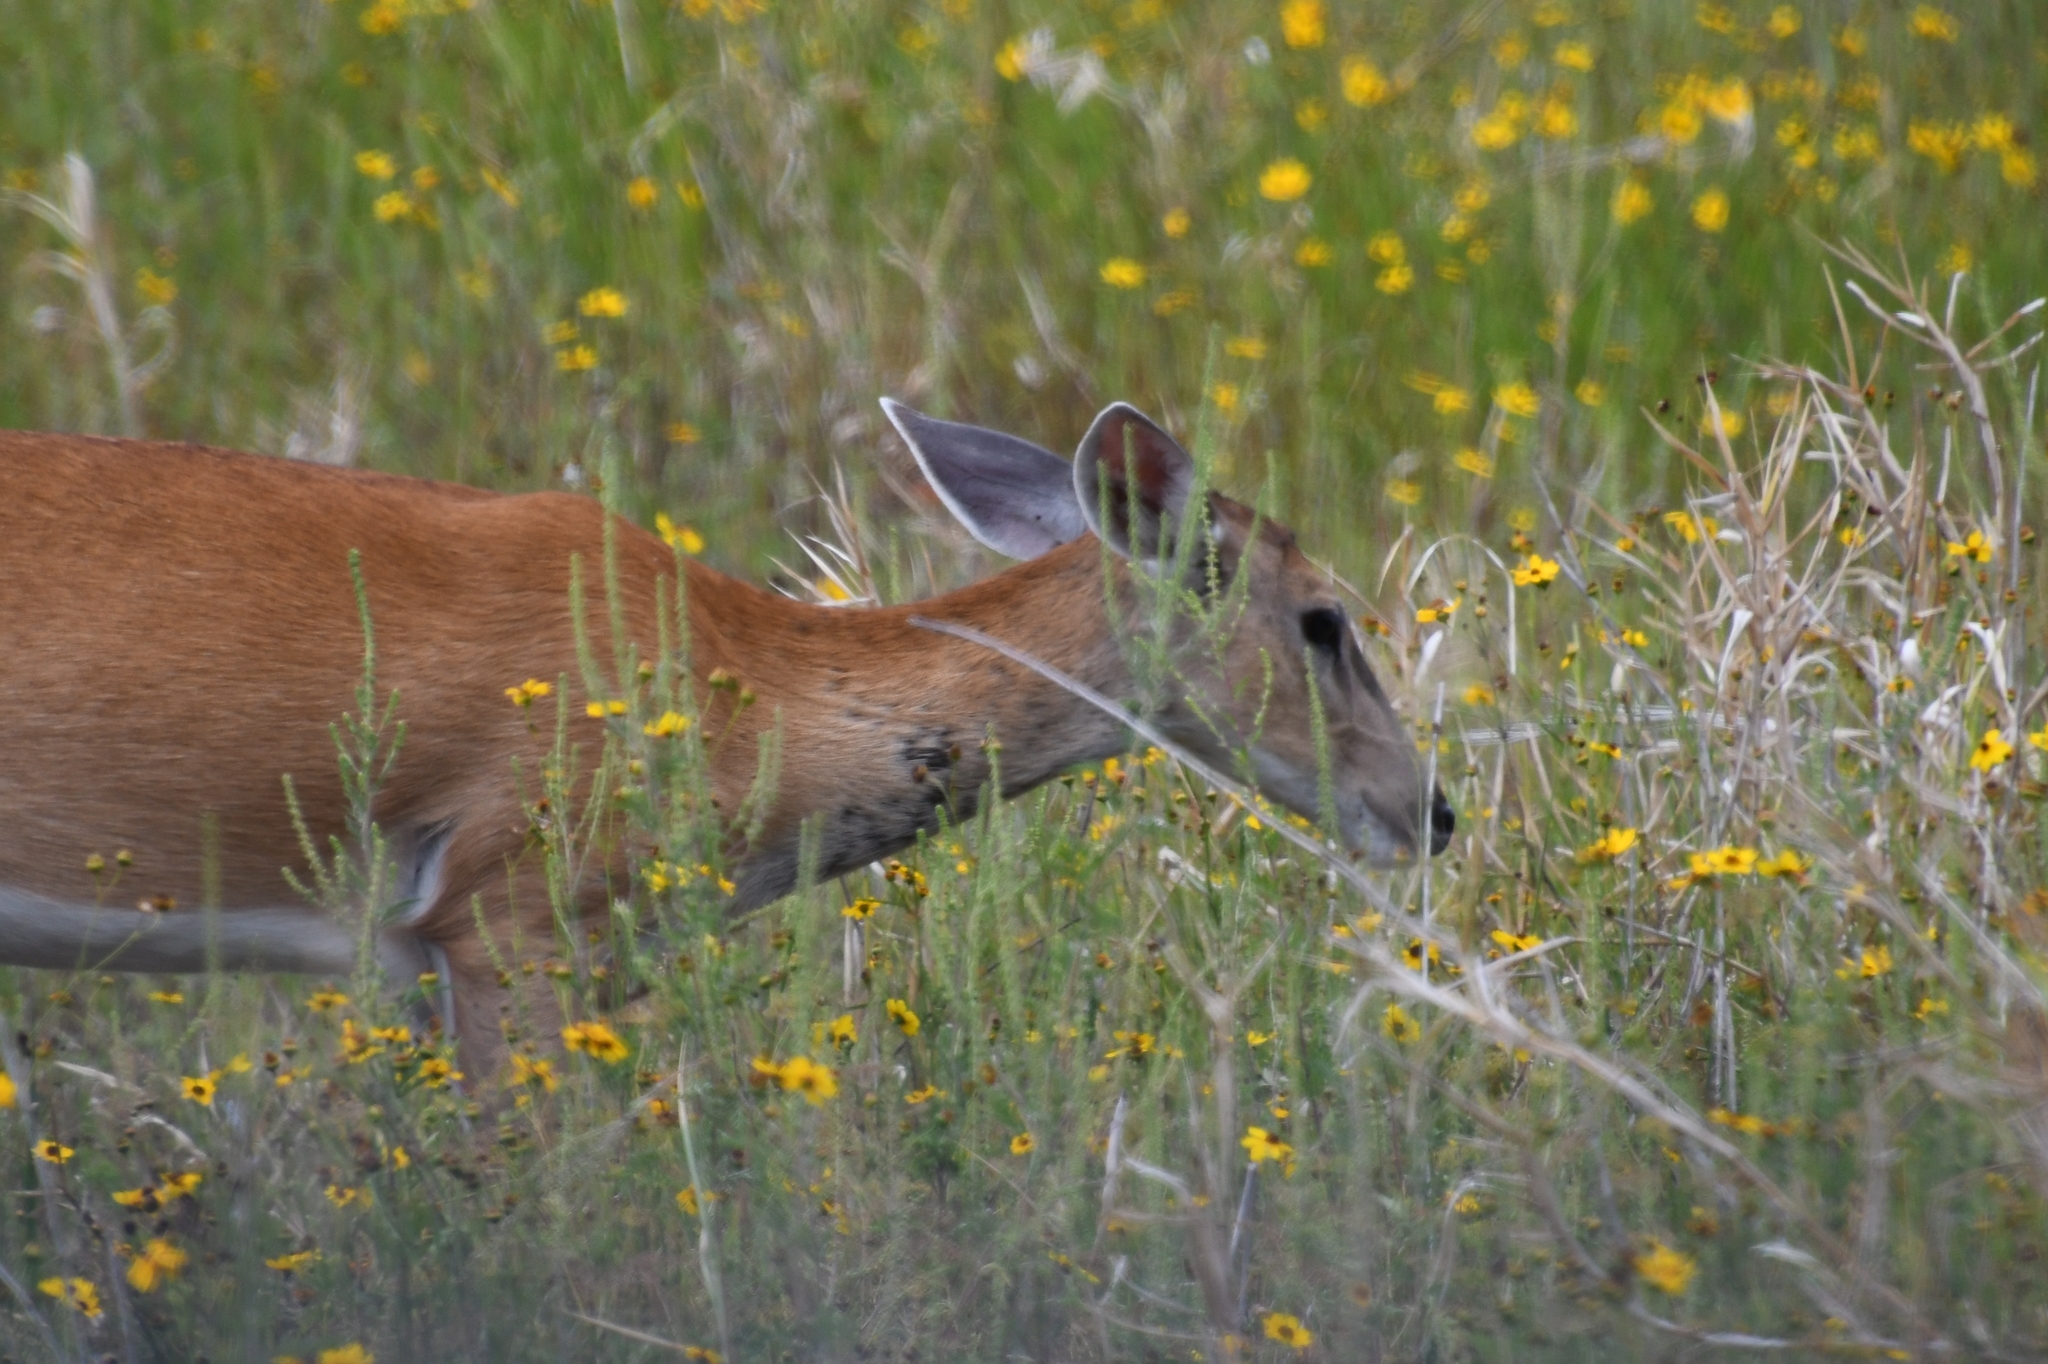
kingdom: Animalia
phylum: Chordata
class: Mammalia
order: Artiodactyla
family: Cervidae
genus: Odocoileus
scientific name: Odocoileus virginianus
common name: White-tailed deer
